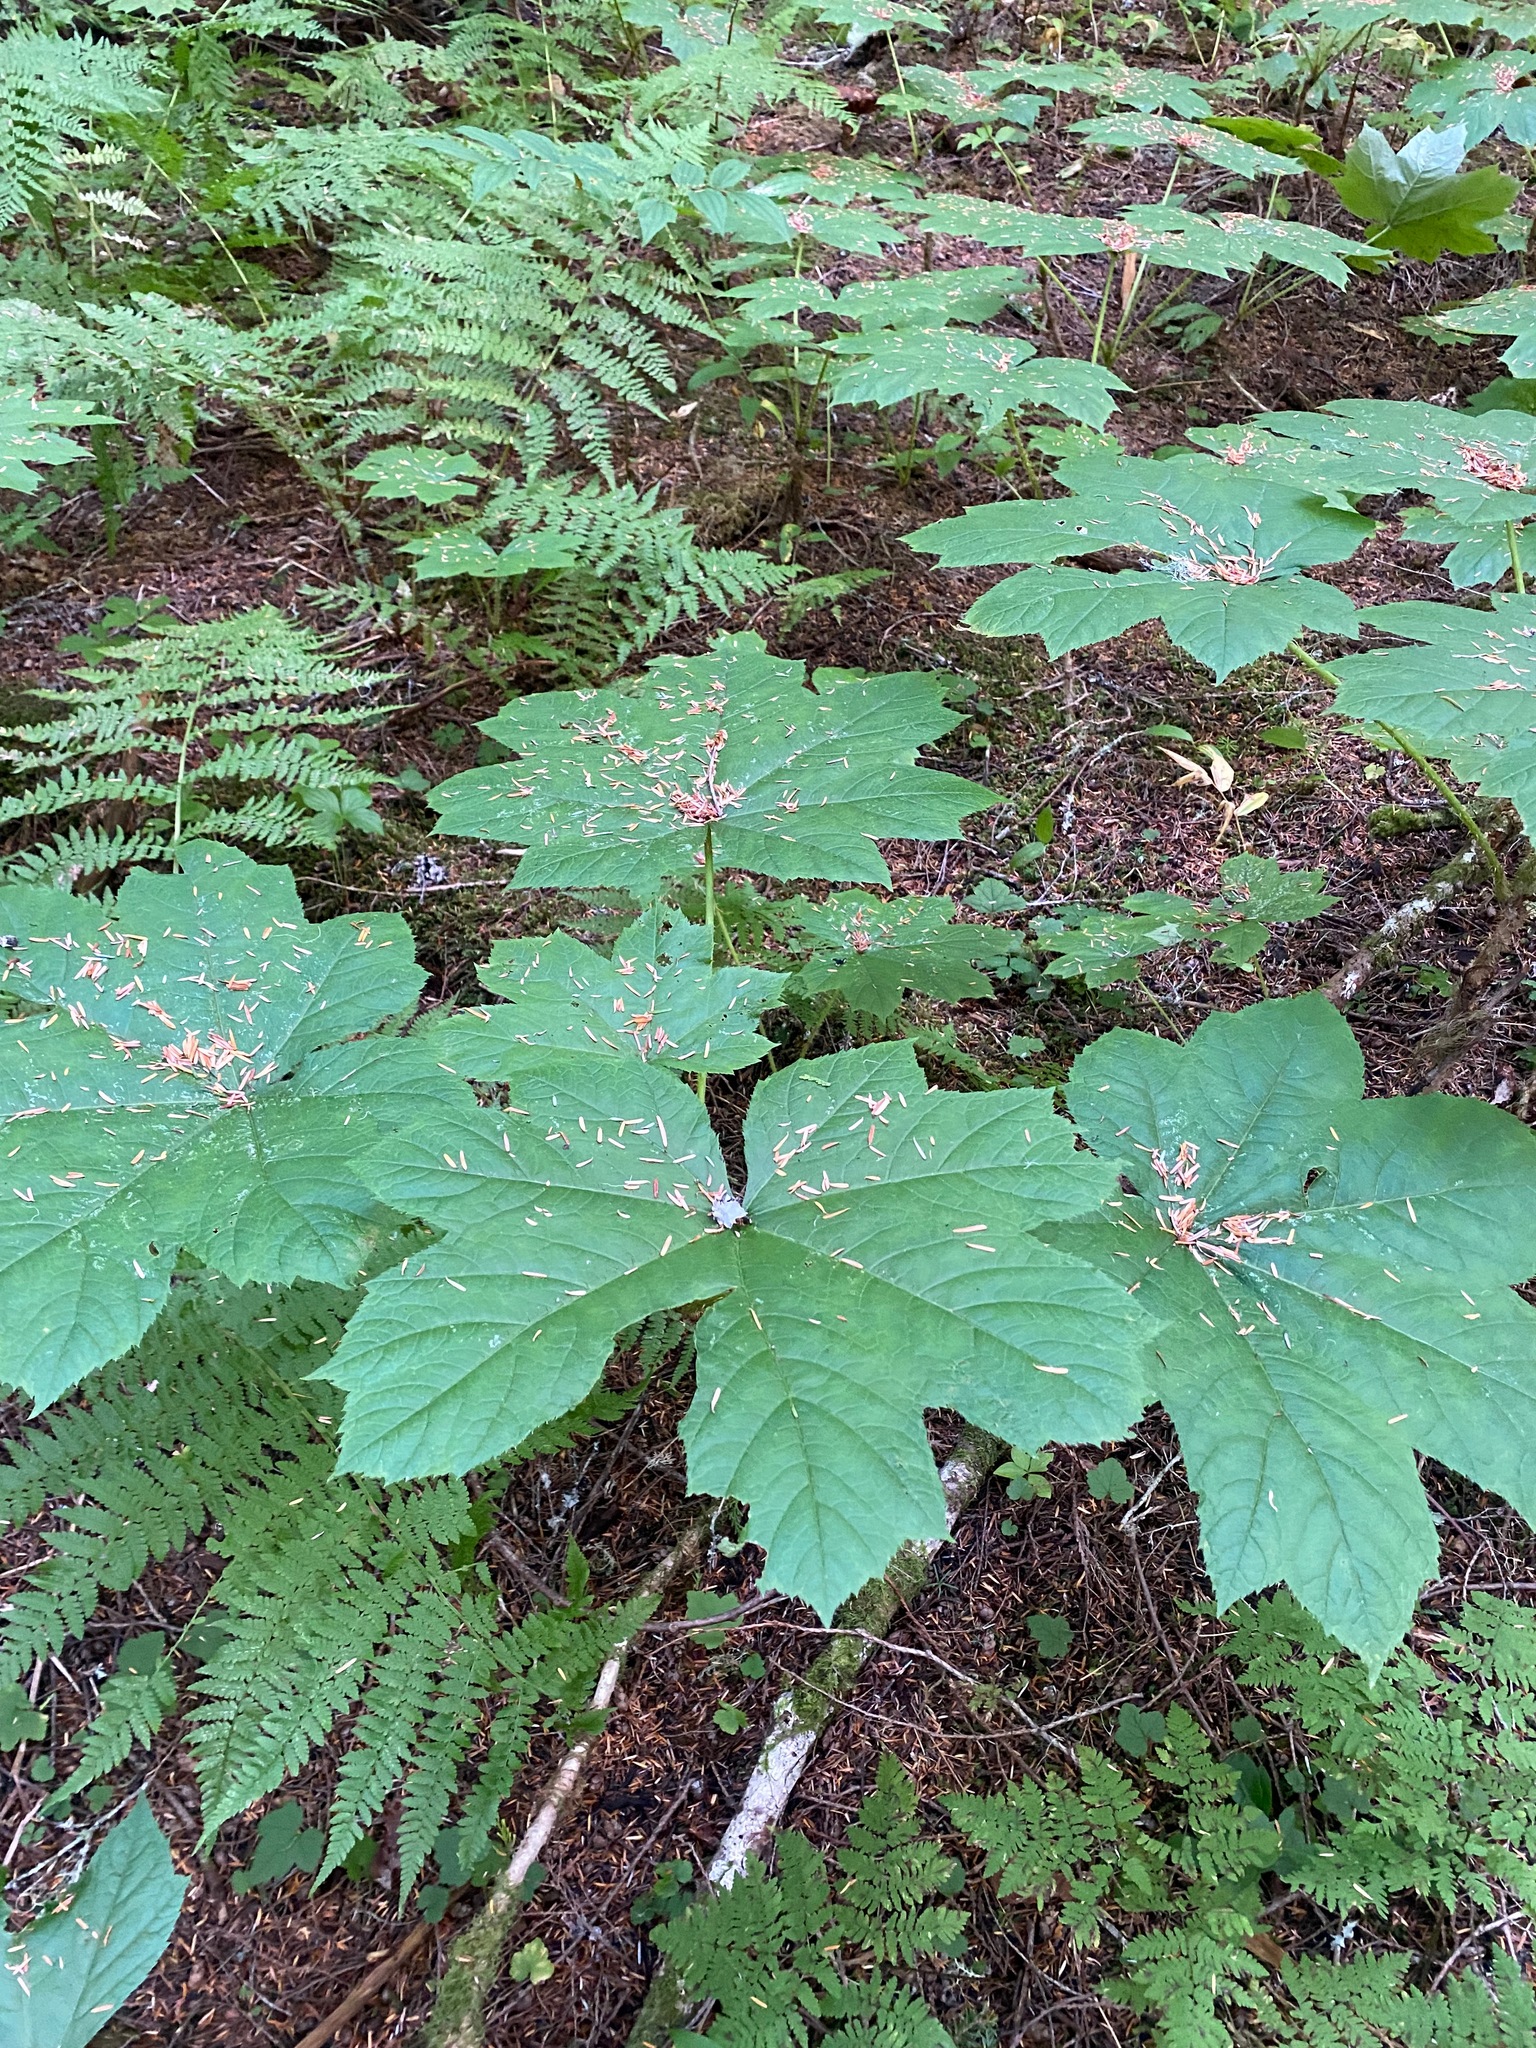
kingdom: Plantae
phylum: Tracheophyta
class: Magnoliopsida
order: Apiales
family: Araliaceae
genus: Oplopanax
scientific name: Oplopanax horridus
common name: Devil's walking-stick
